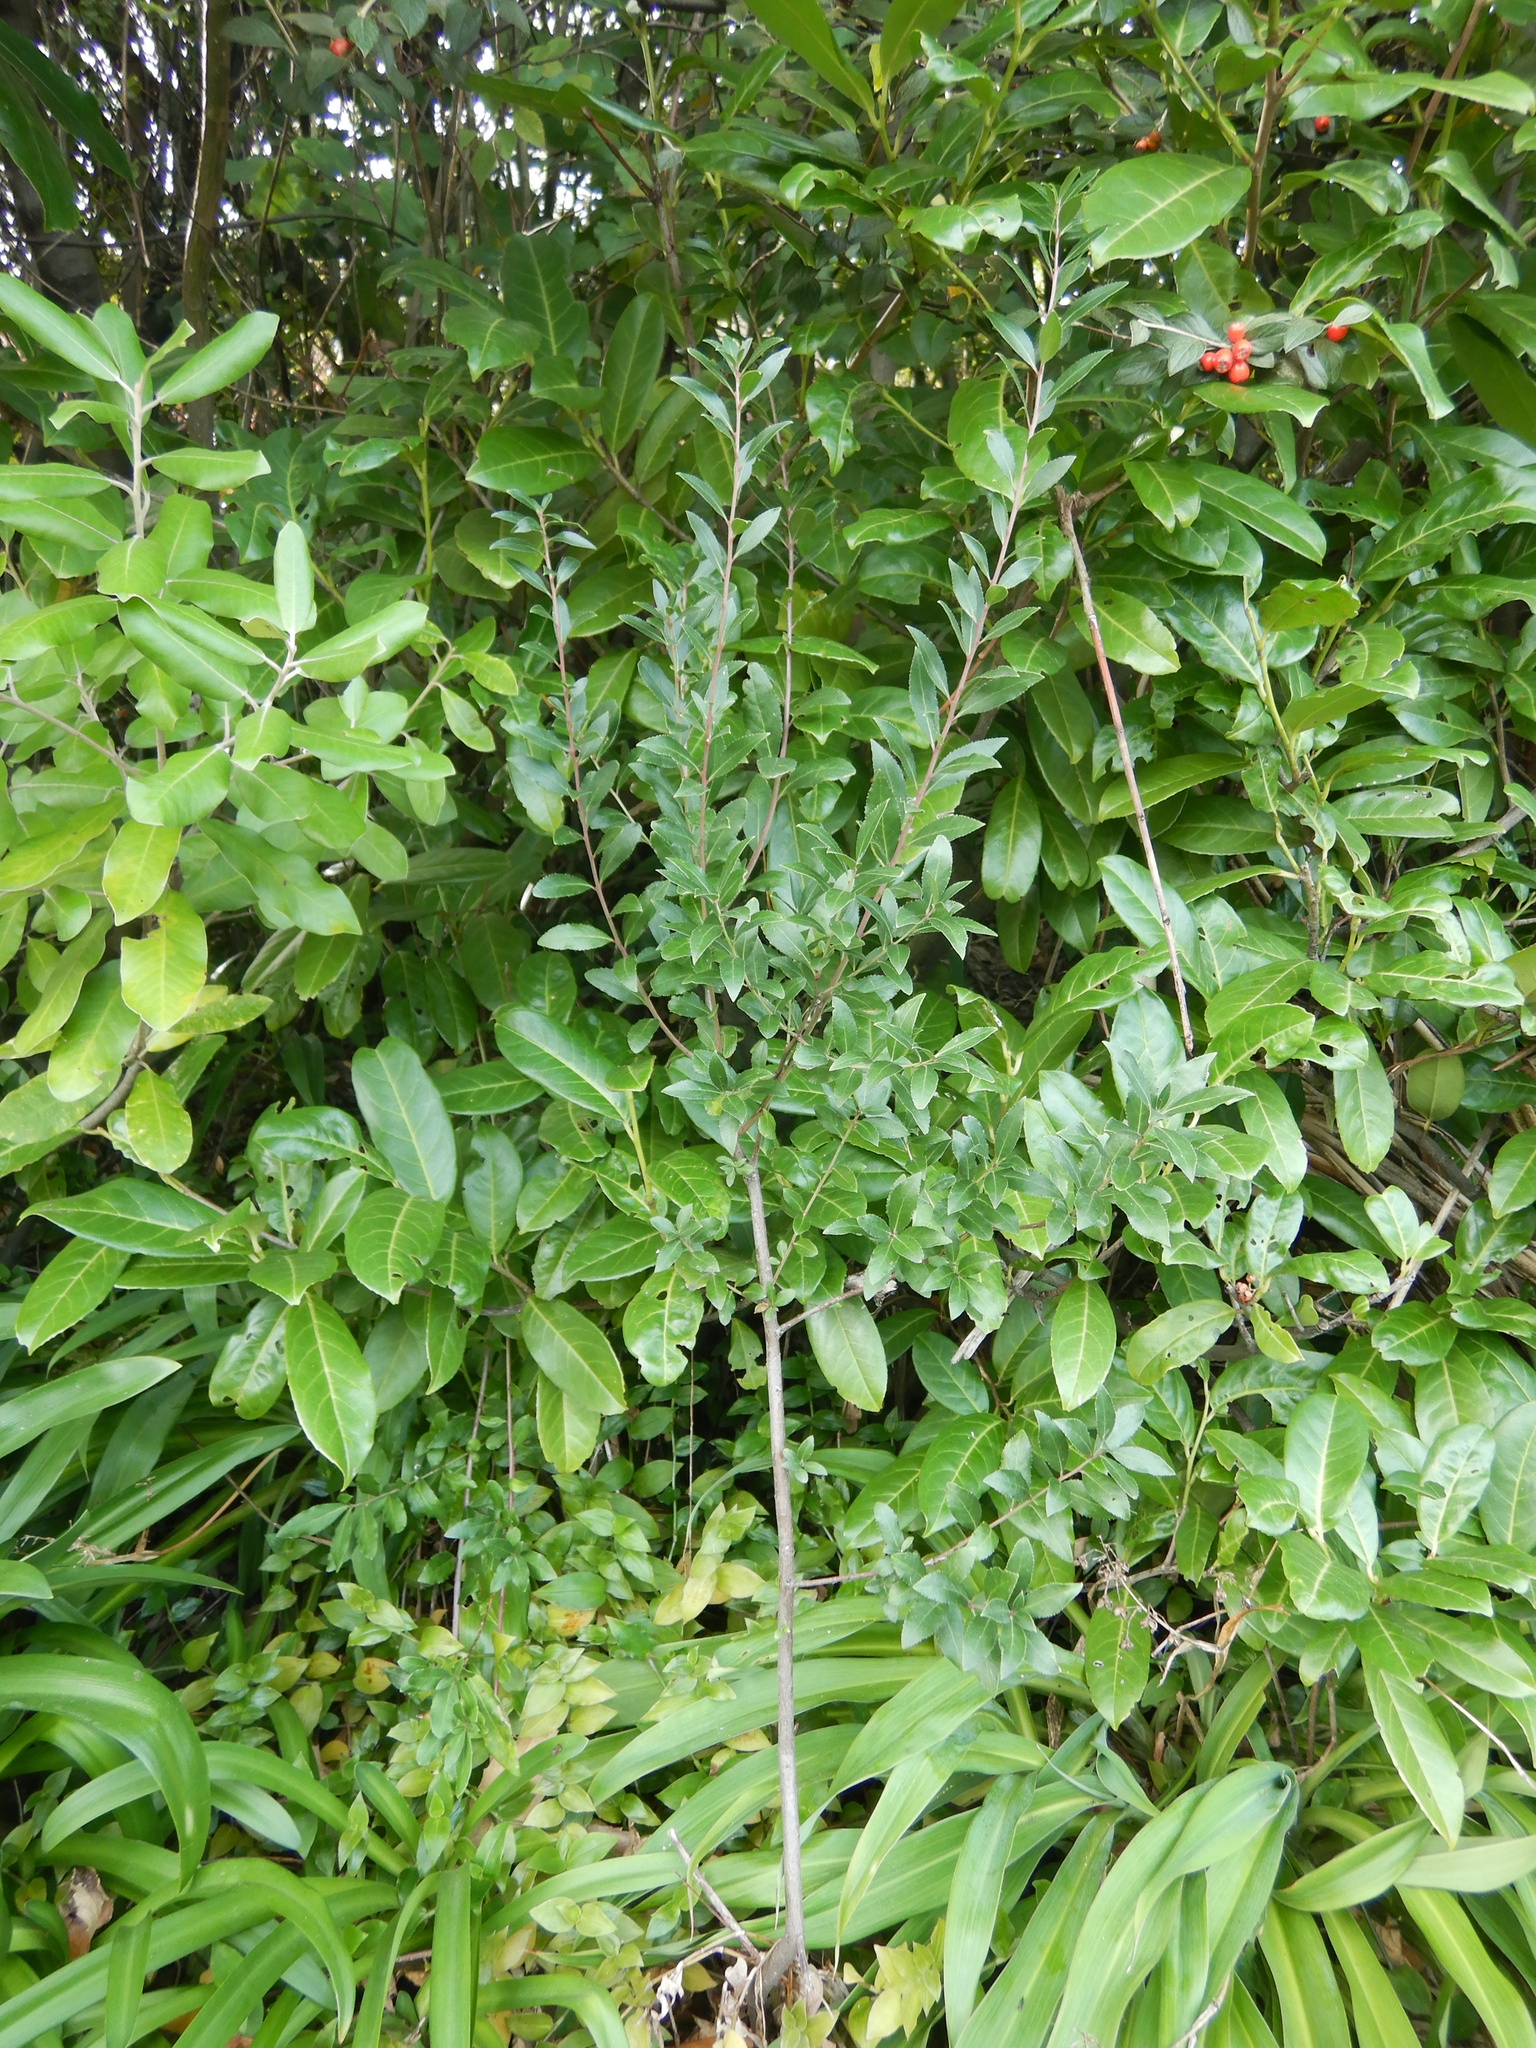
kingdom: Plantae
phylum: Tracheophyta
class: Magnoliopsida
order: Celastrales
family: Celastraceae
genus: Maytenus
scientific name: Maytenus boaria
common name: Mayten
